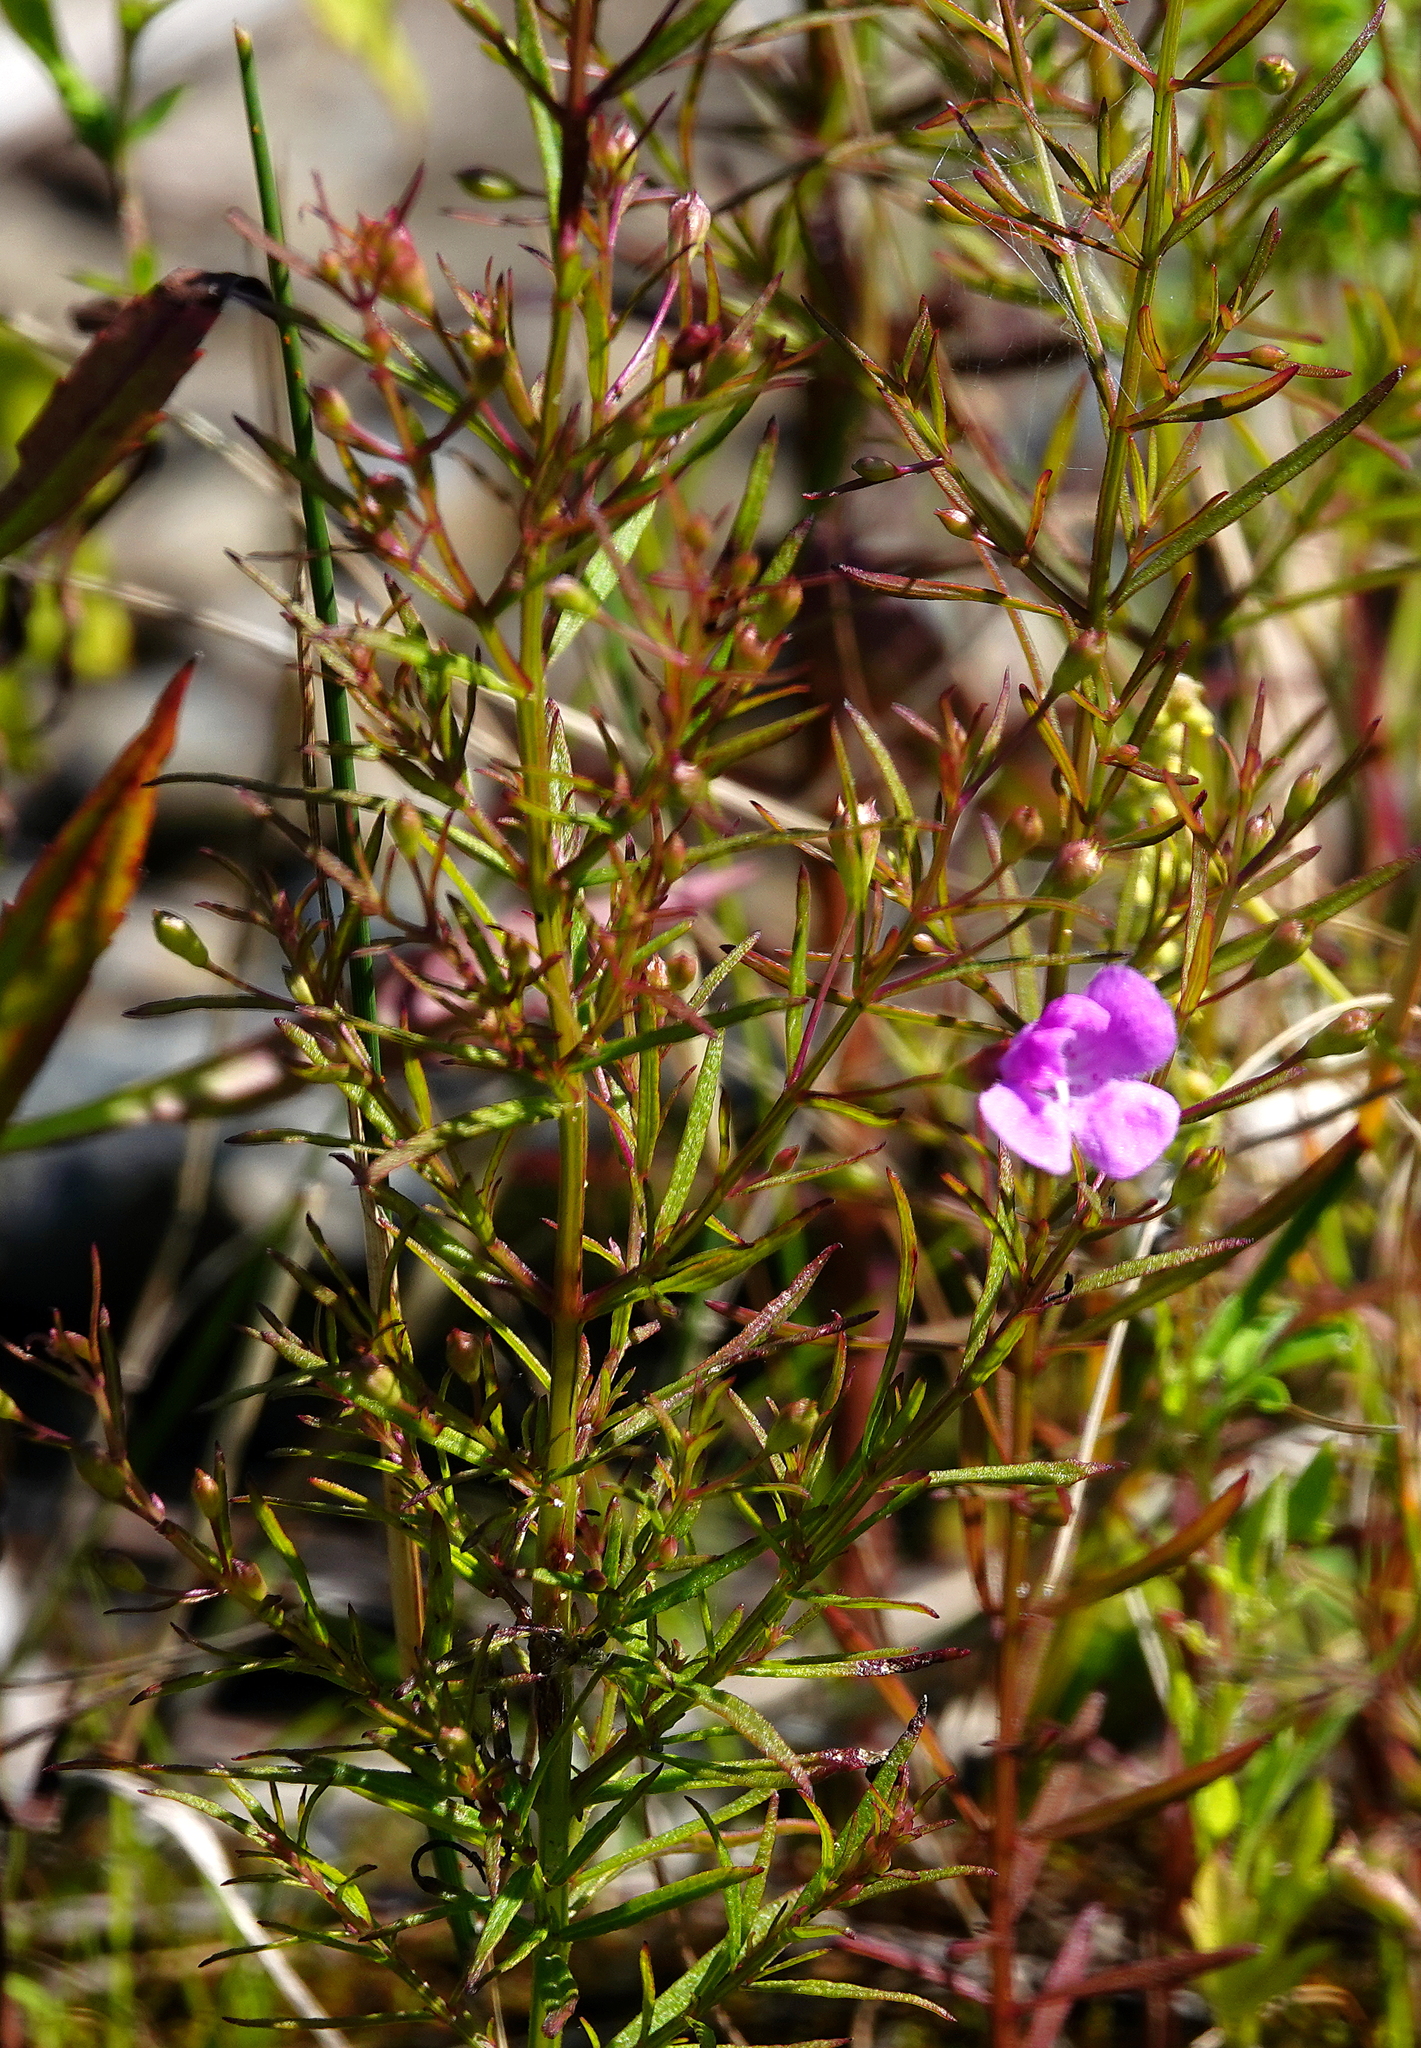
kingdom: Plantae
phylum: Tracheophyta
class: Magnoliopsida
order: Lamiales
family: Orobanchaceae
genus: Agalinis
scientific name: Agalinis tenuifolia
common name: Slender agalinis
